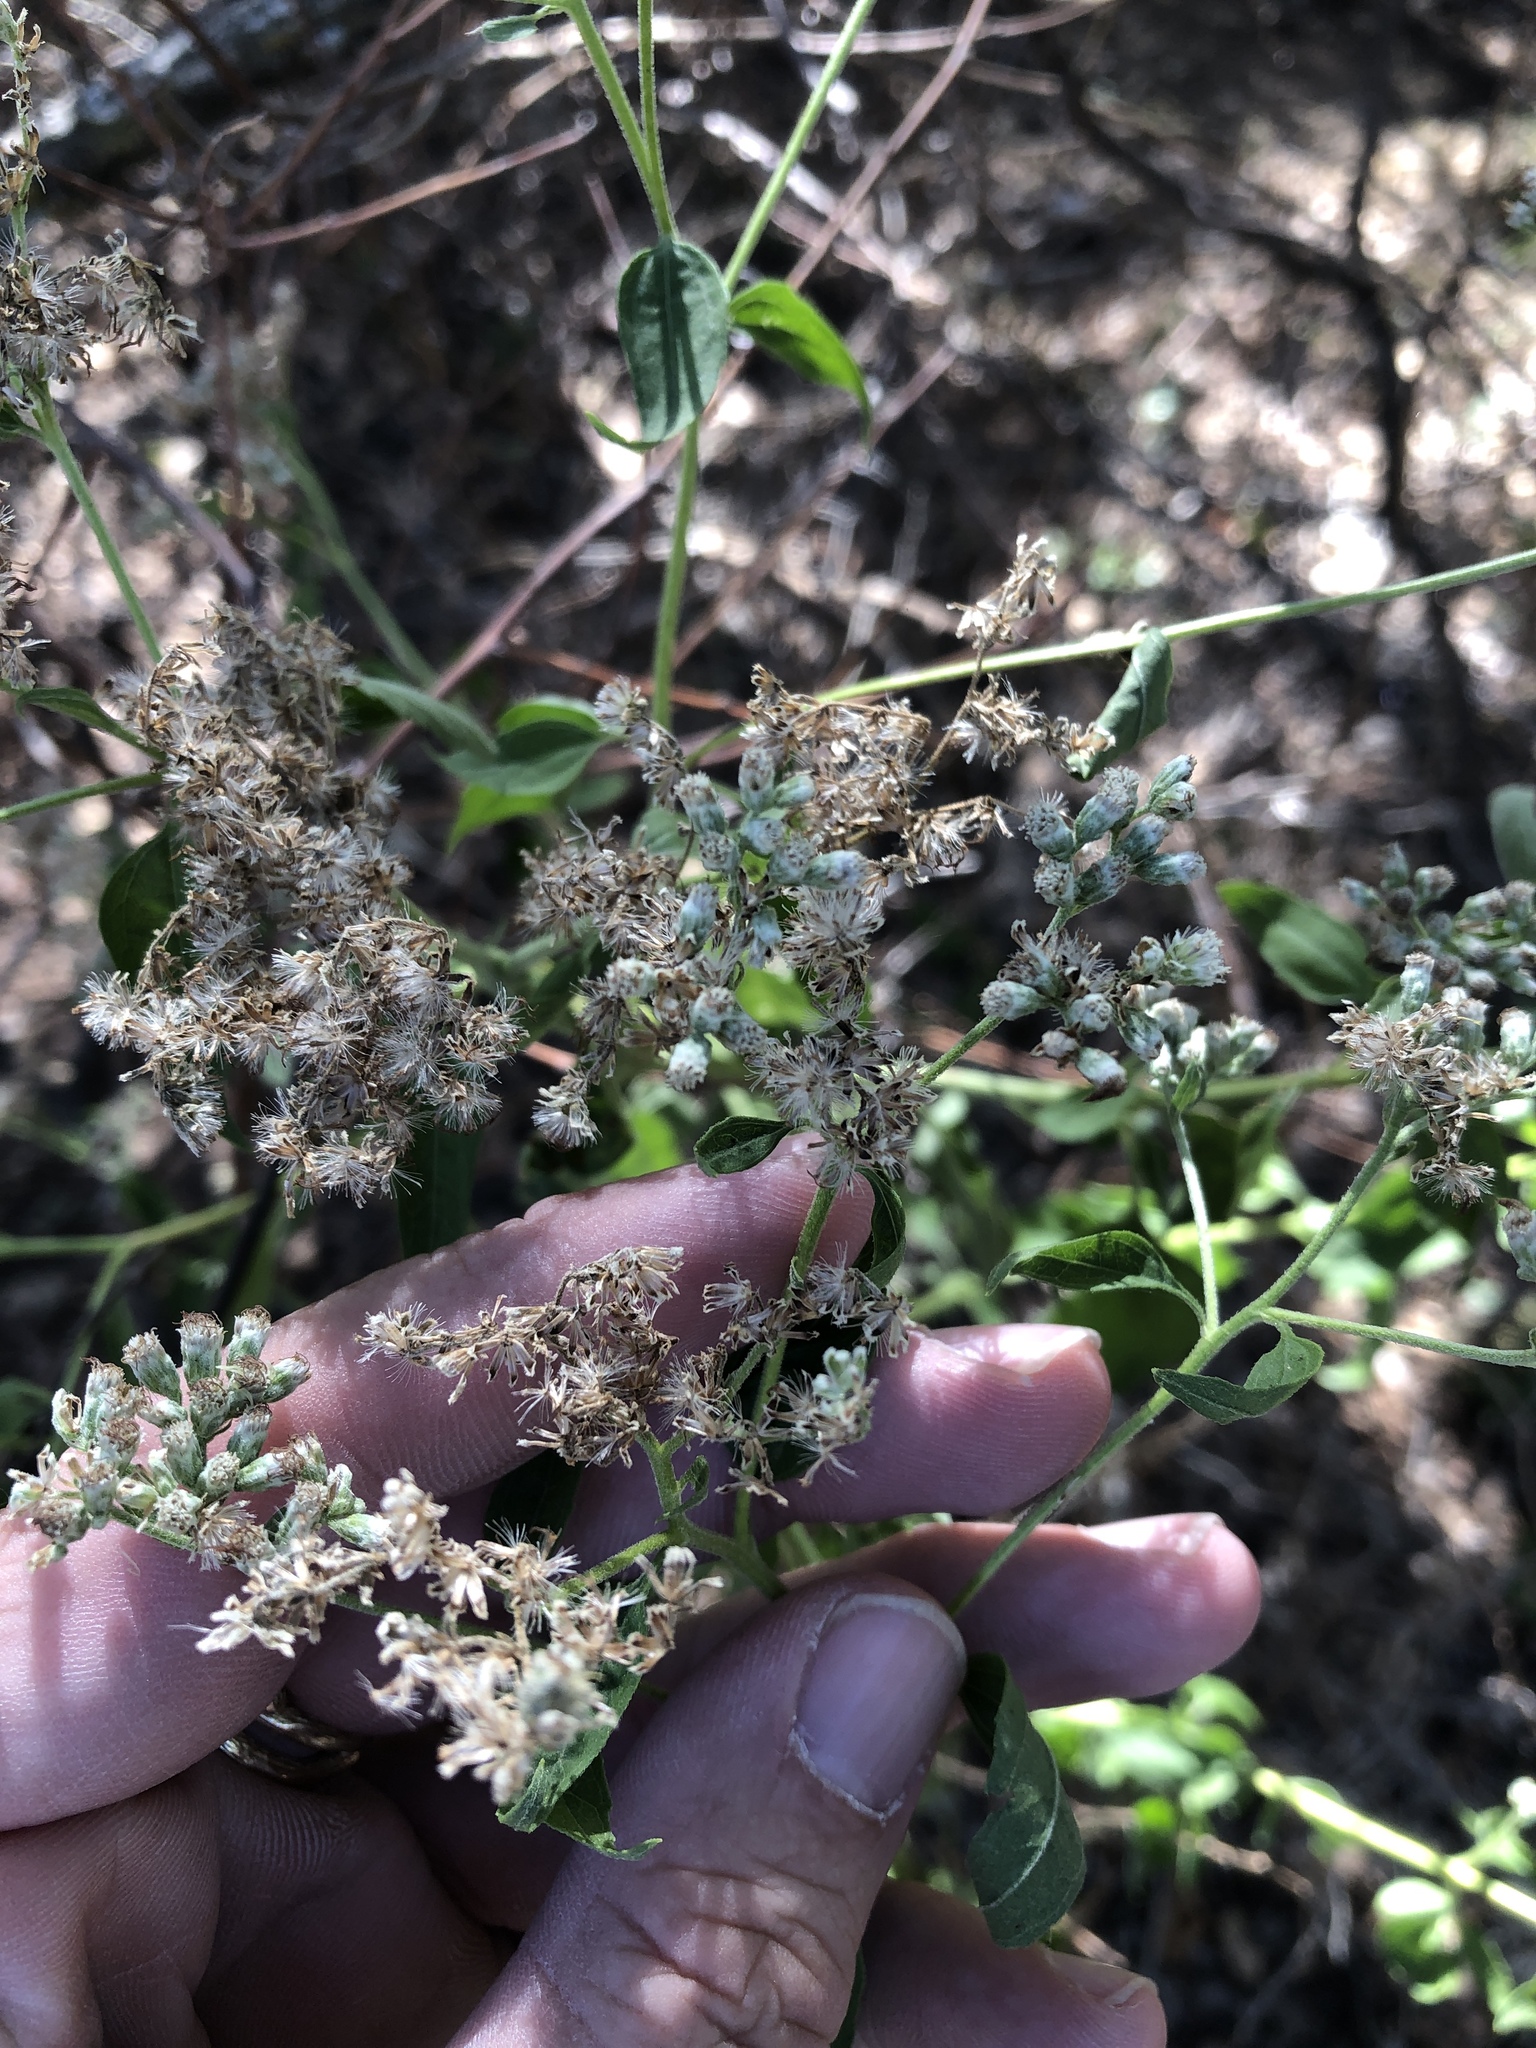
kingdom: Plantae
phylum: Tracheophyta
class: Magnoliopsida
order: Asterales
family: Asteraceae
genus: Eupatorium
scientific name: Eupatorium serotinum
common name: Late boneset
